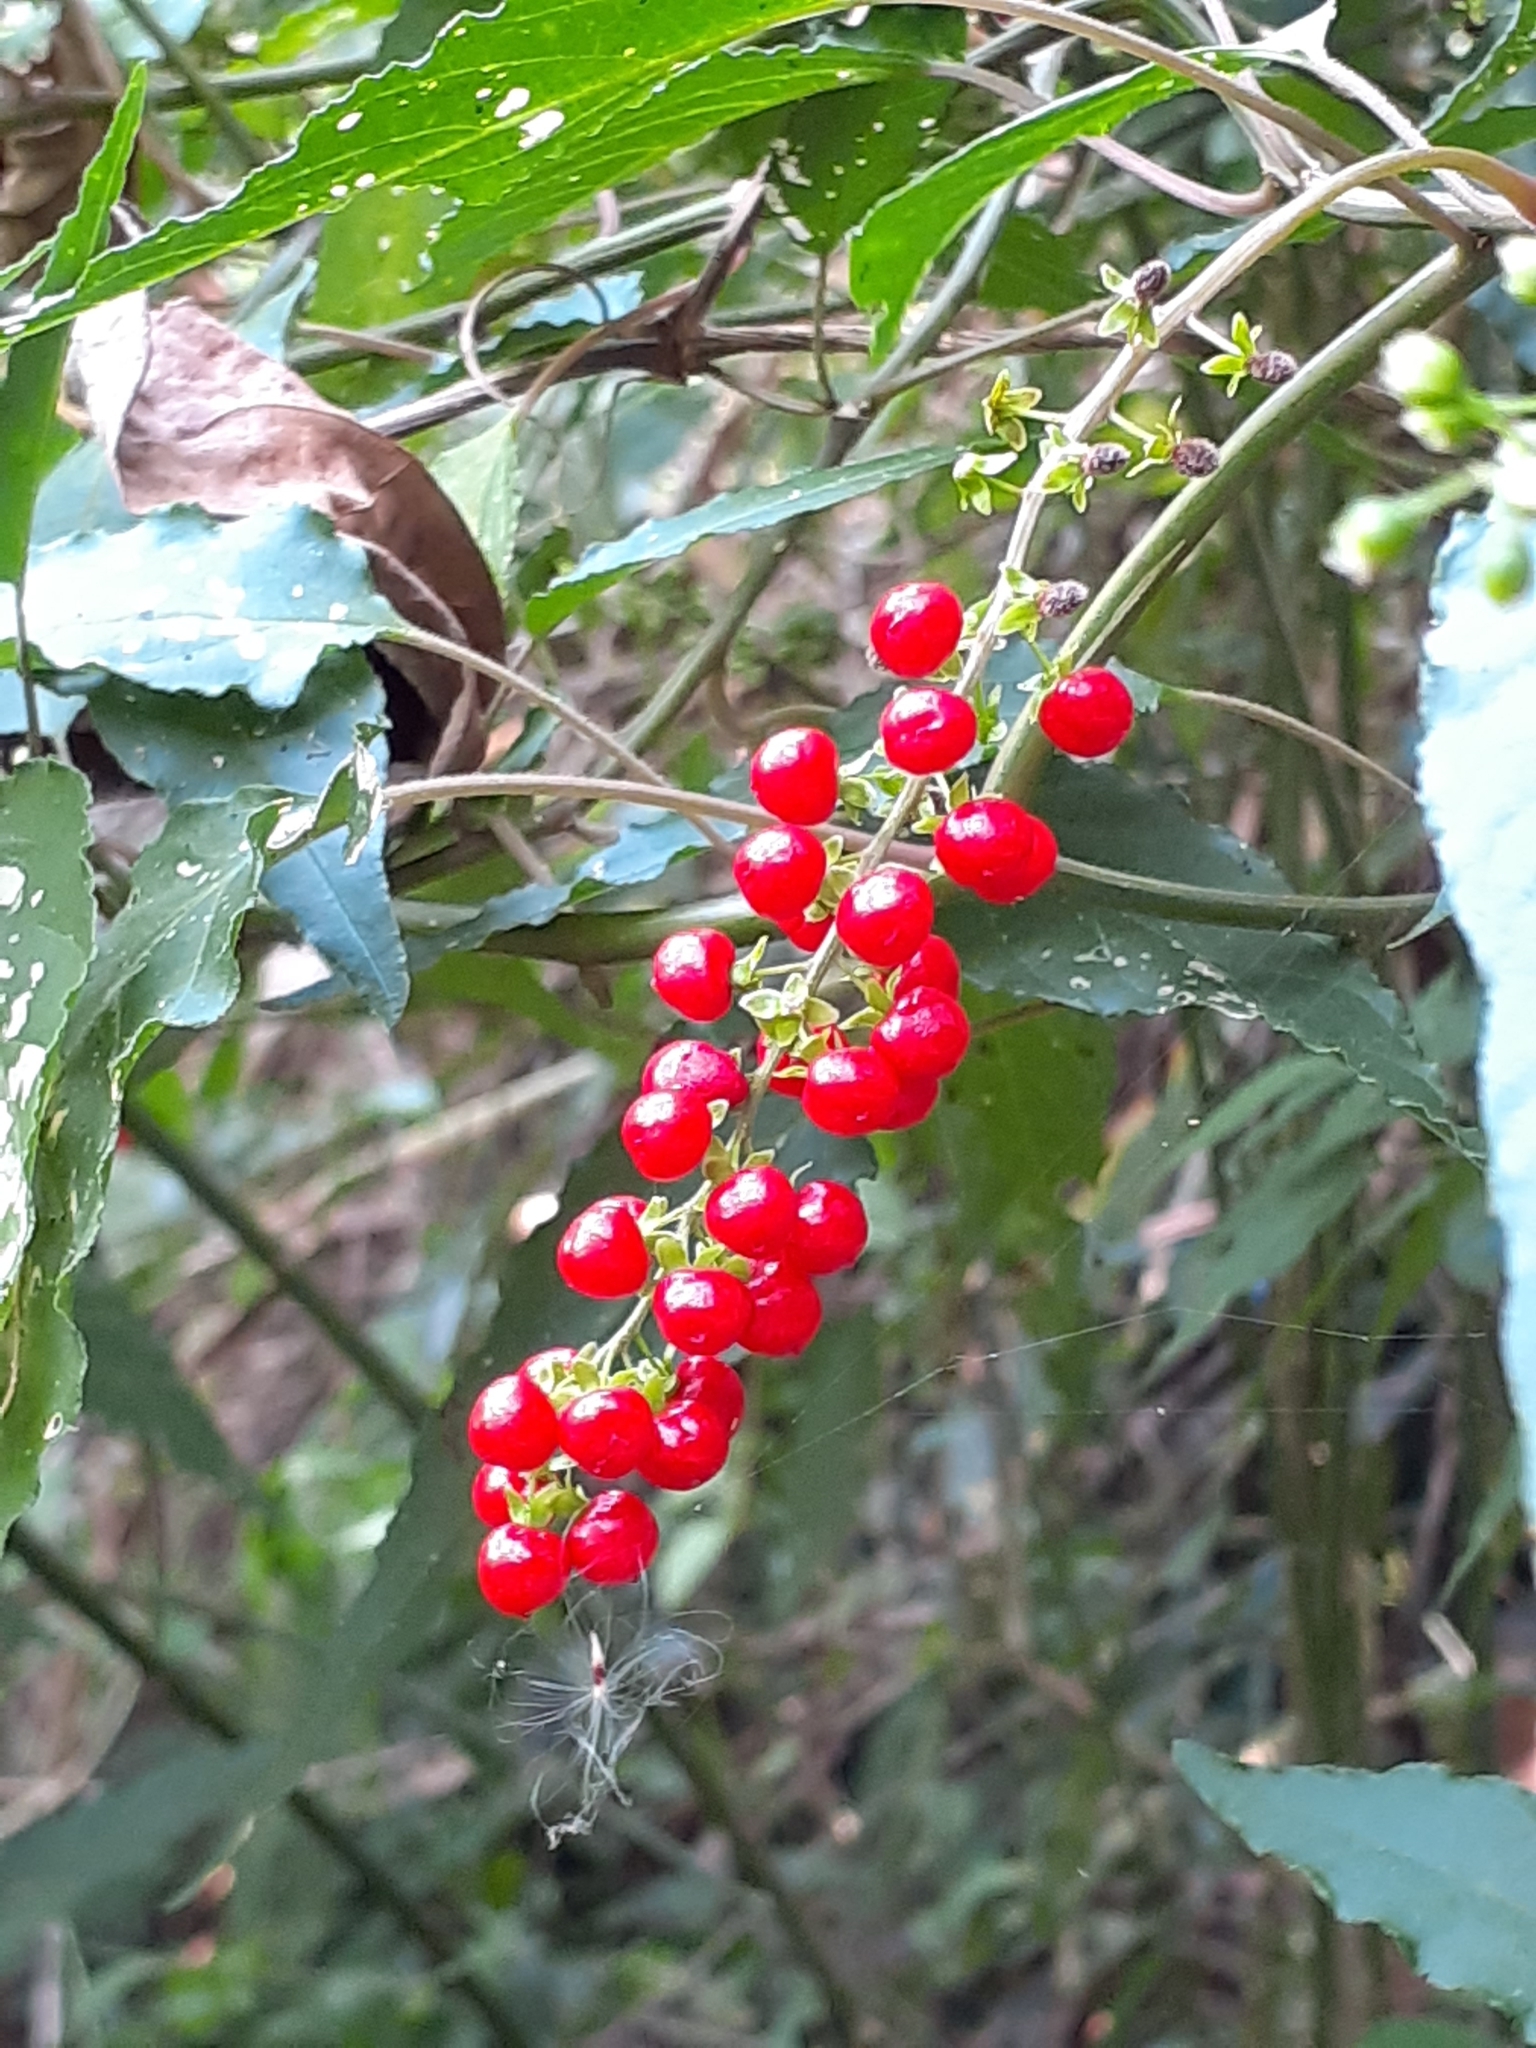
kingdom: Plantae
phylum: Tracheophyta
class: Magnoliopsida
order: Caryophyllales
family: Phytolaccaceae
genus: Rivina
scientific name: Rivina humilis
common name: Rougeplant
